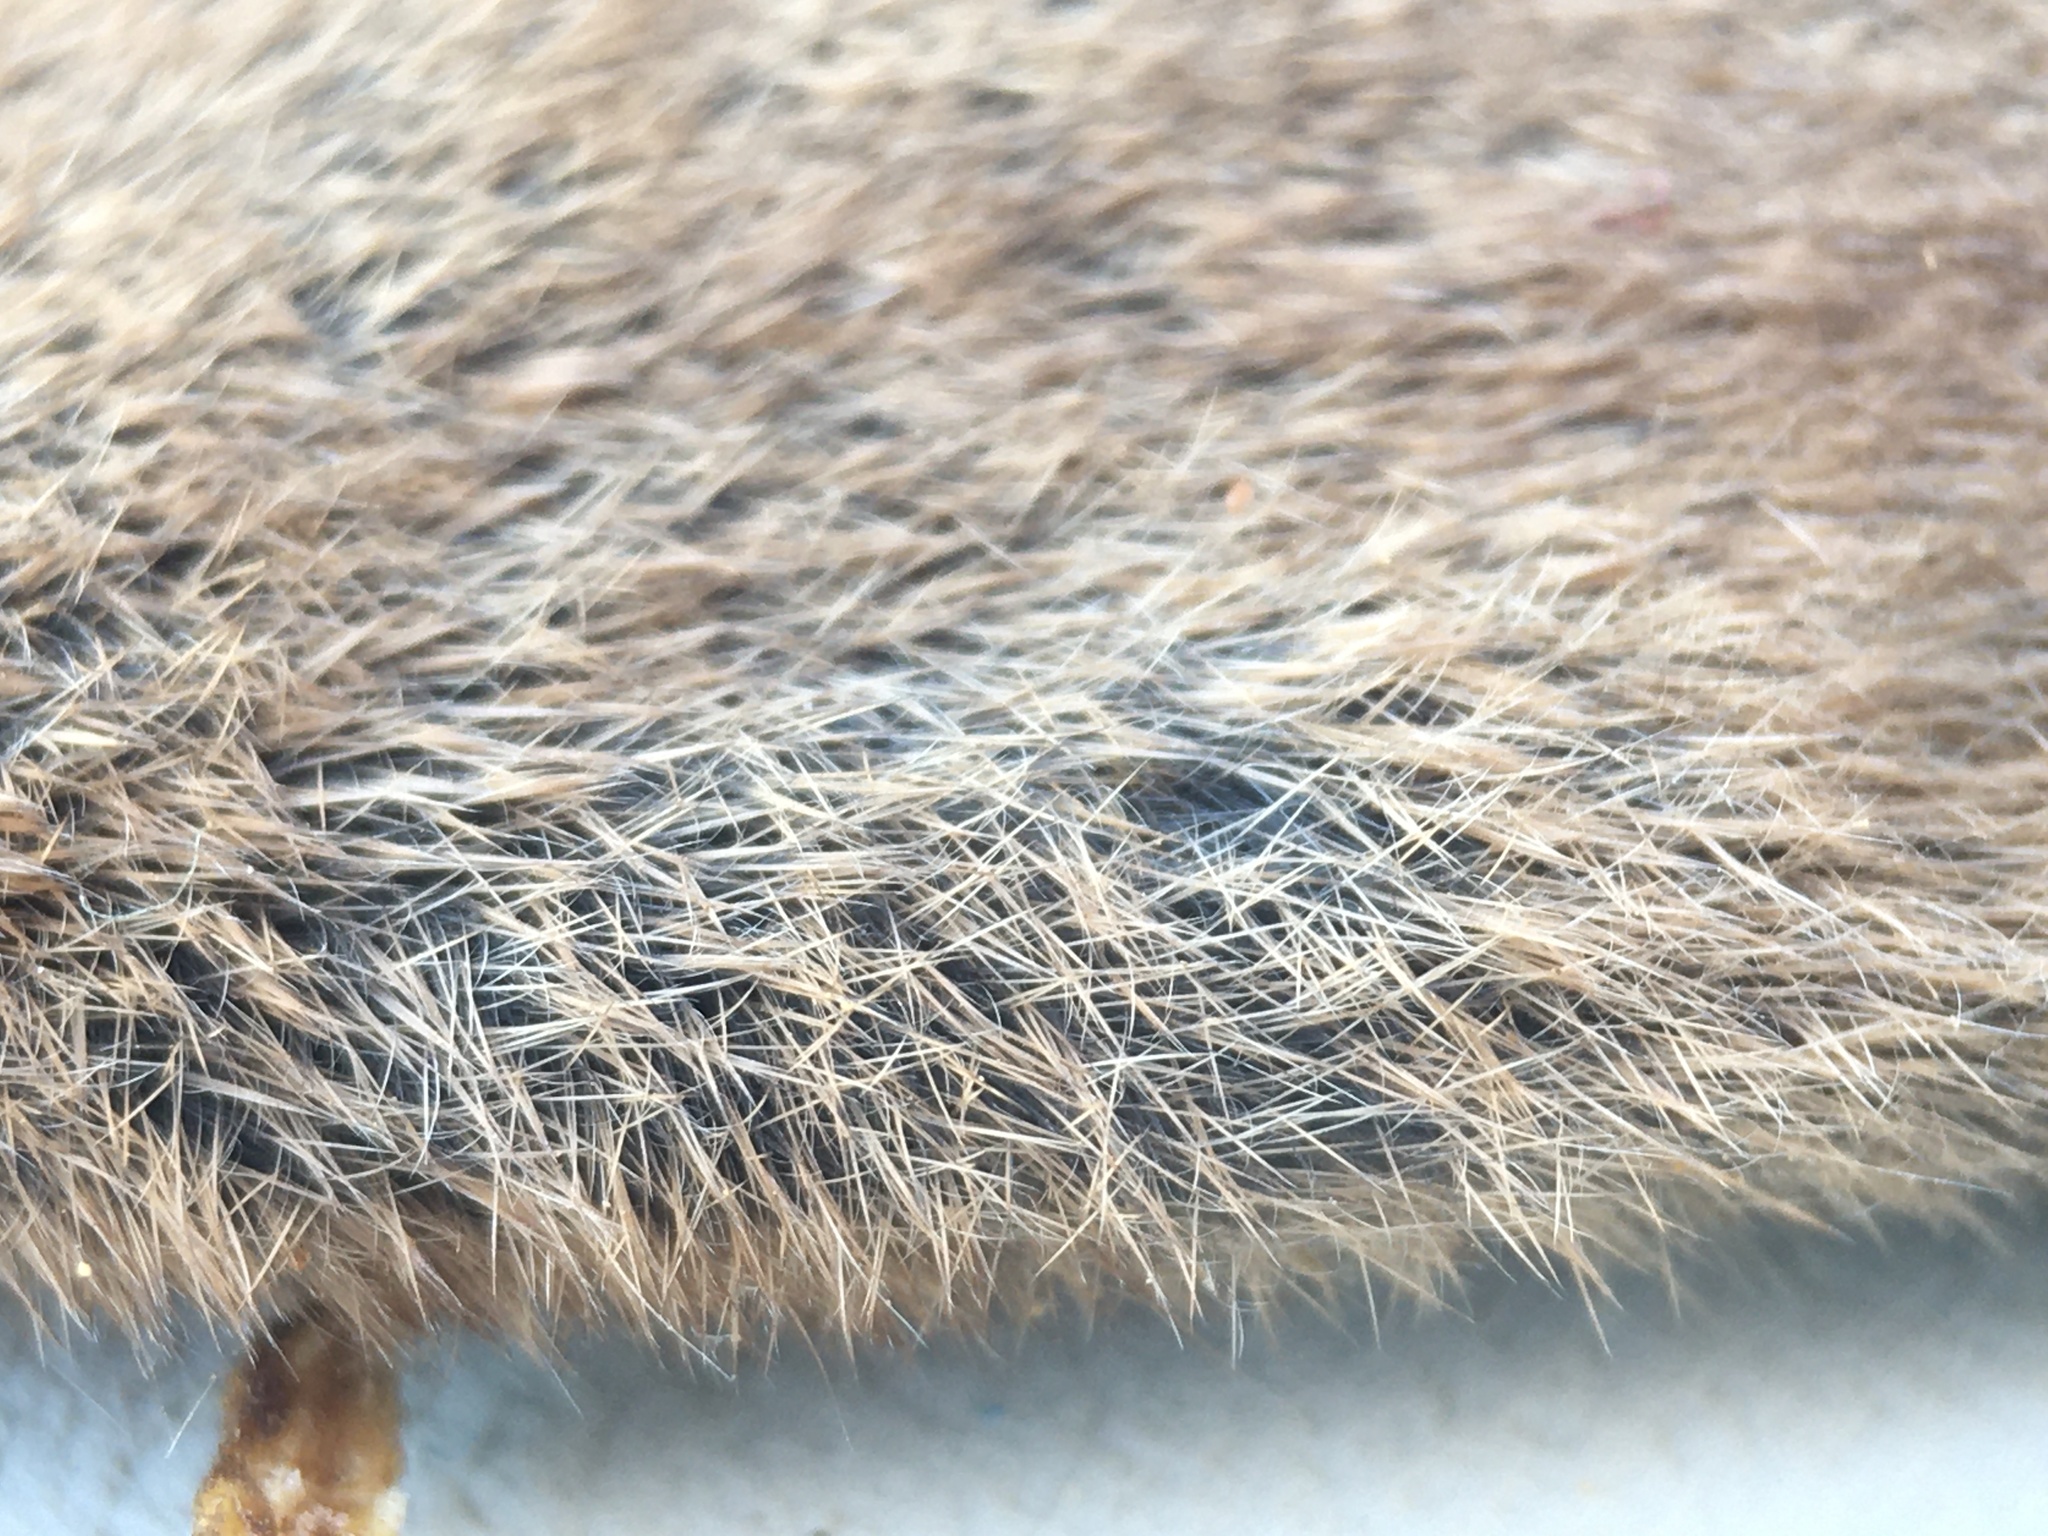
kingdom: Animalia
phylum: Chordata
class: Mammalia
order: Soricomorpha
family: Soricidae
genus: Sorex
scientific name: Sorex minutus
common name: Eurasian pygmy shrew
